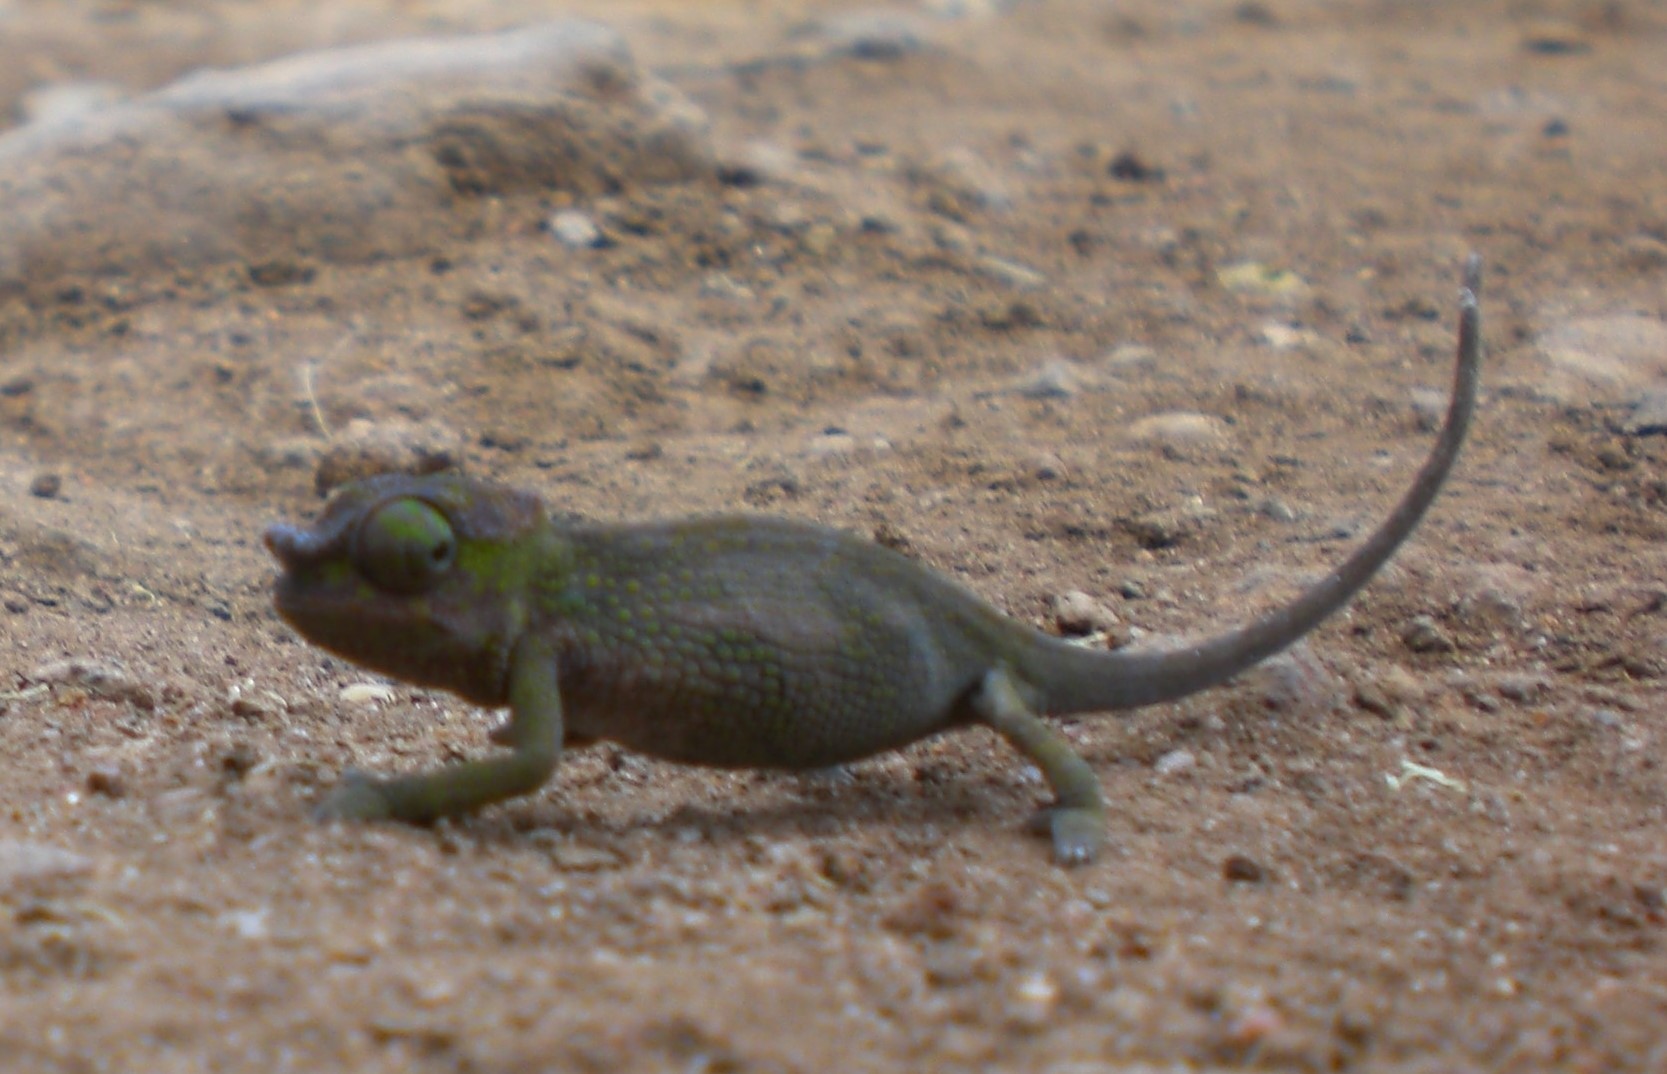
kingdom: Animalia
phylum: Chordata
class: Squamata
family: Chamaeleonidae
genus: Kinyongia
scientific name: Kinyongia tavetana
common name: Kilimanjaro blade-horned chameleon
